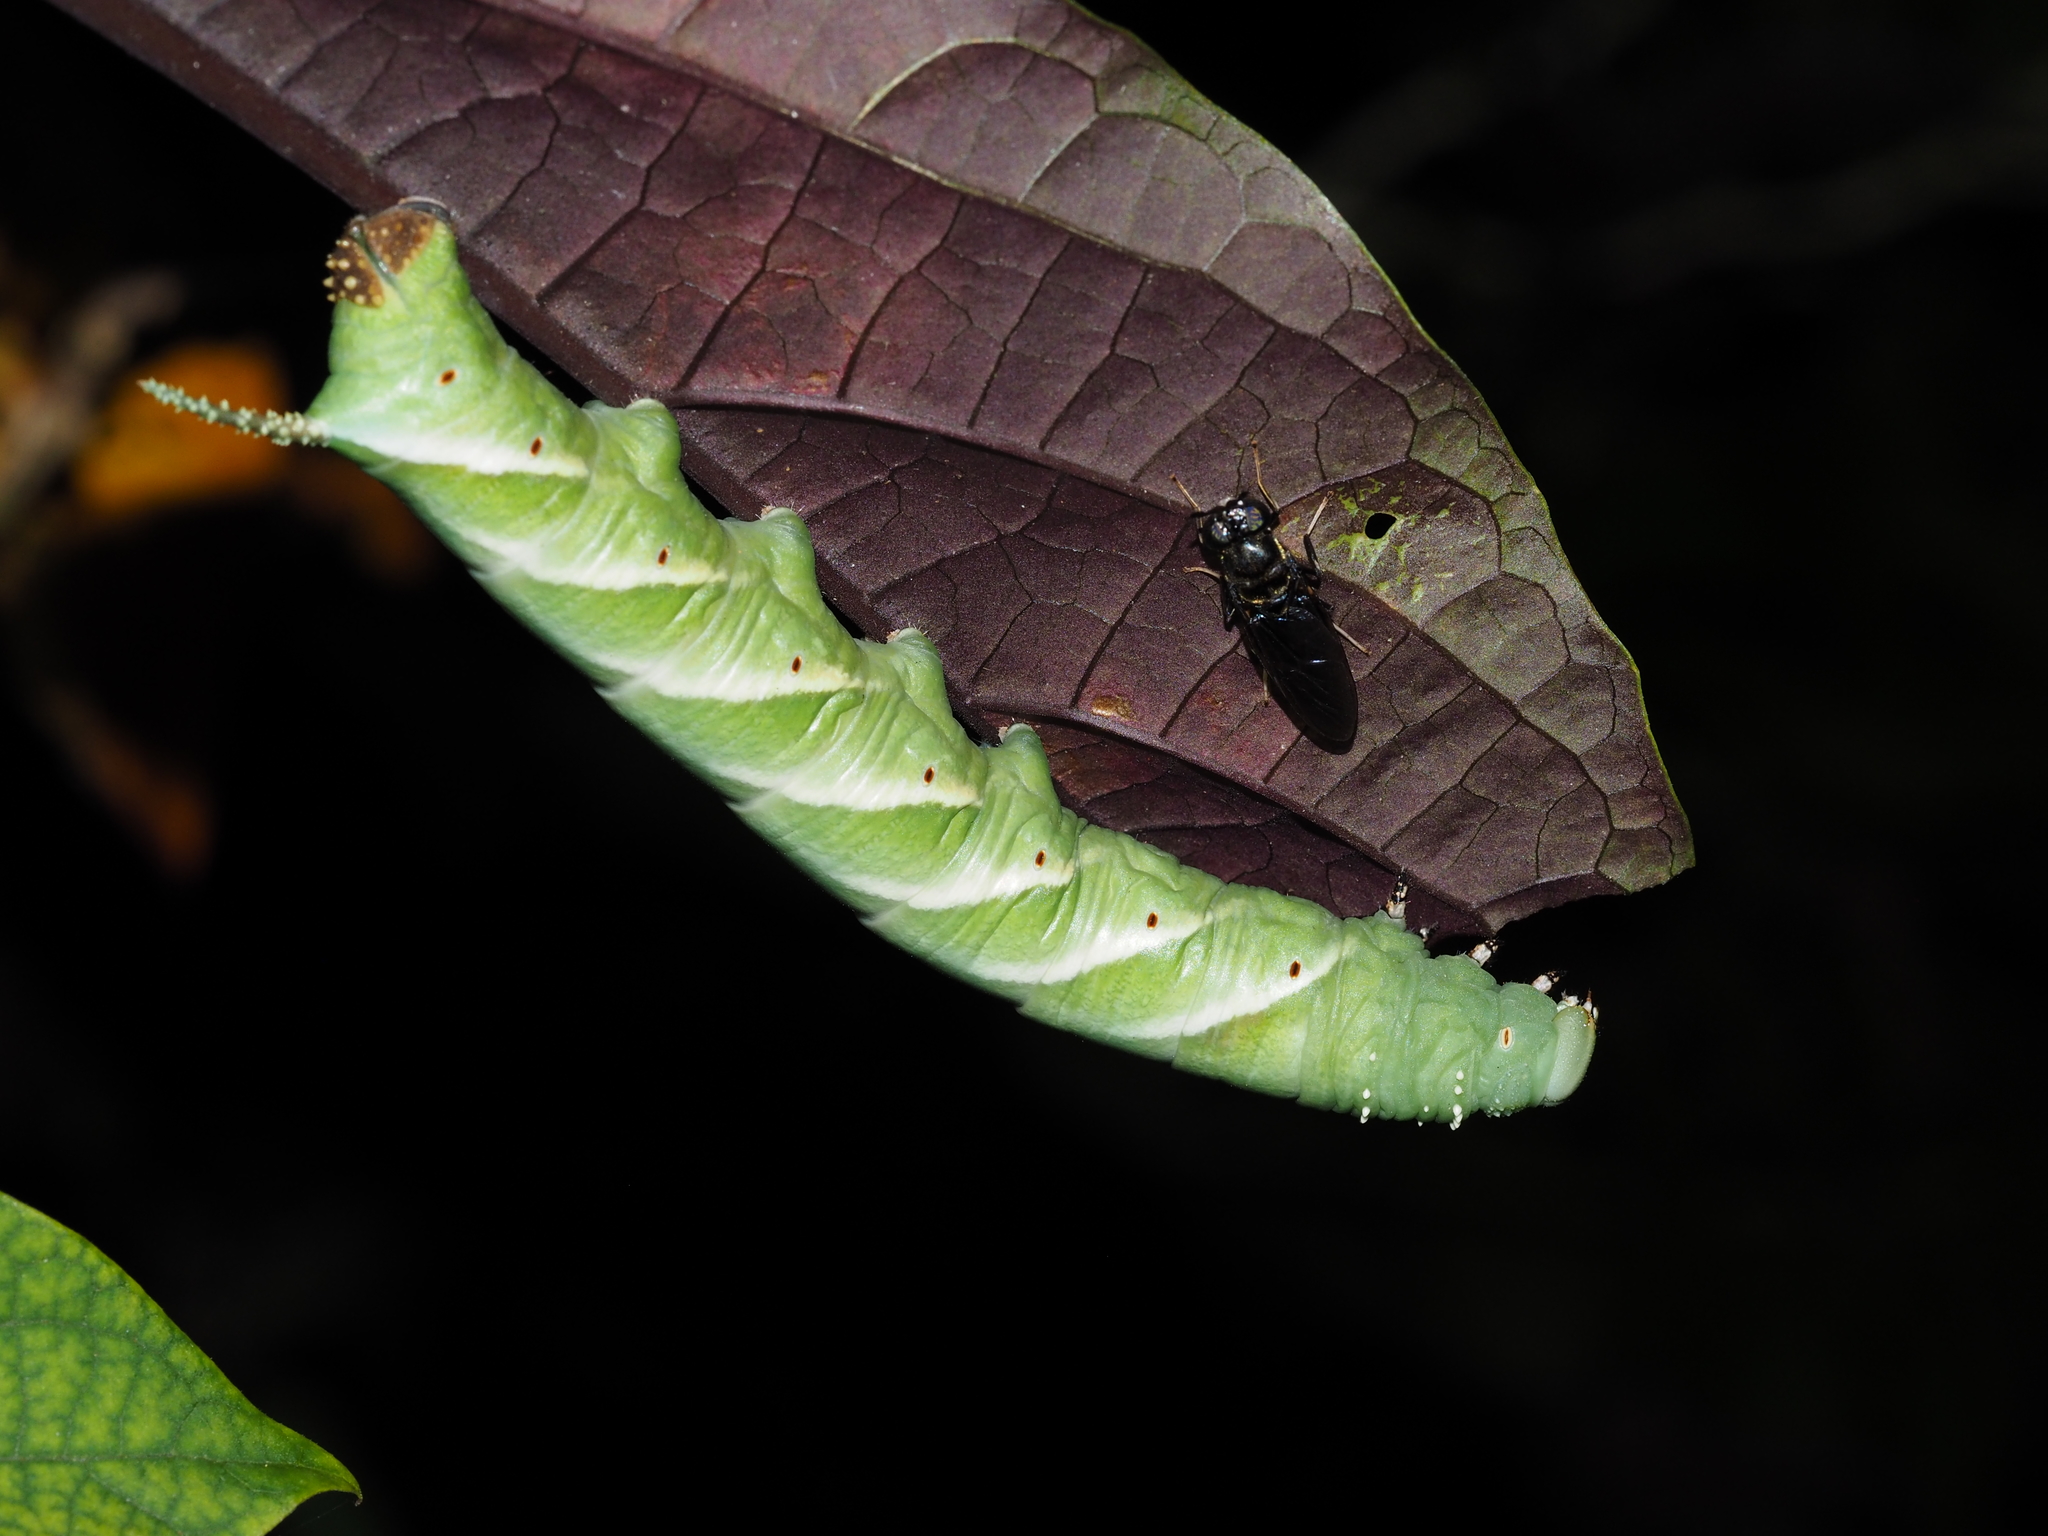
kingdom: Animalia
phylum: Arthropoda
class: Insecta
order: Lepidoptera
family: Sphingidae
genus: Psilogramma
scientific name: Psilogramma menephron
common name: Gray hawk moth
